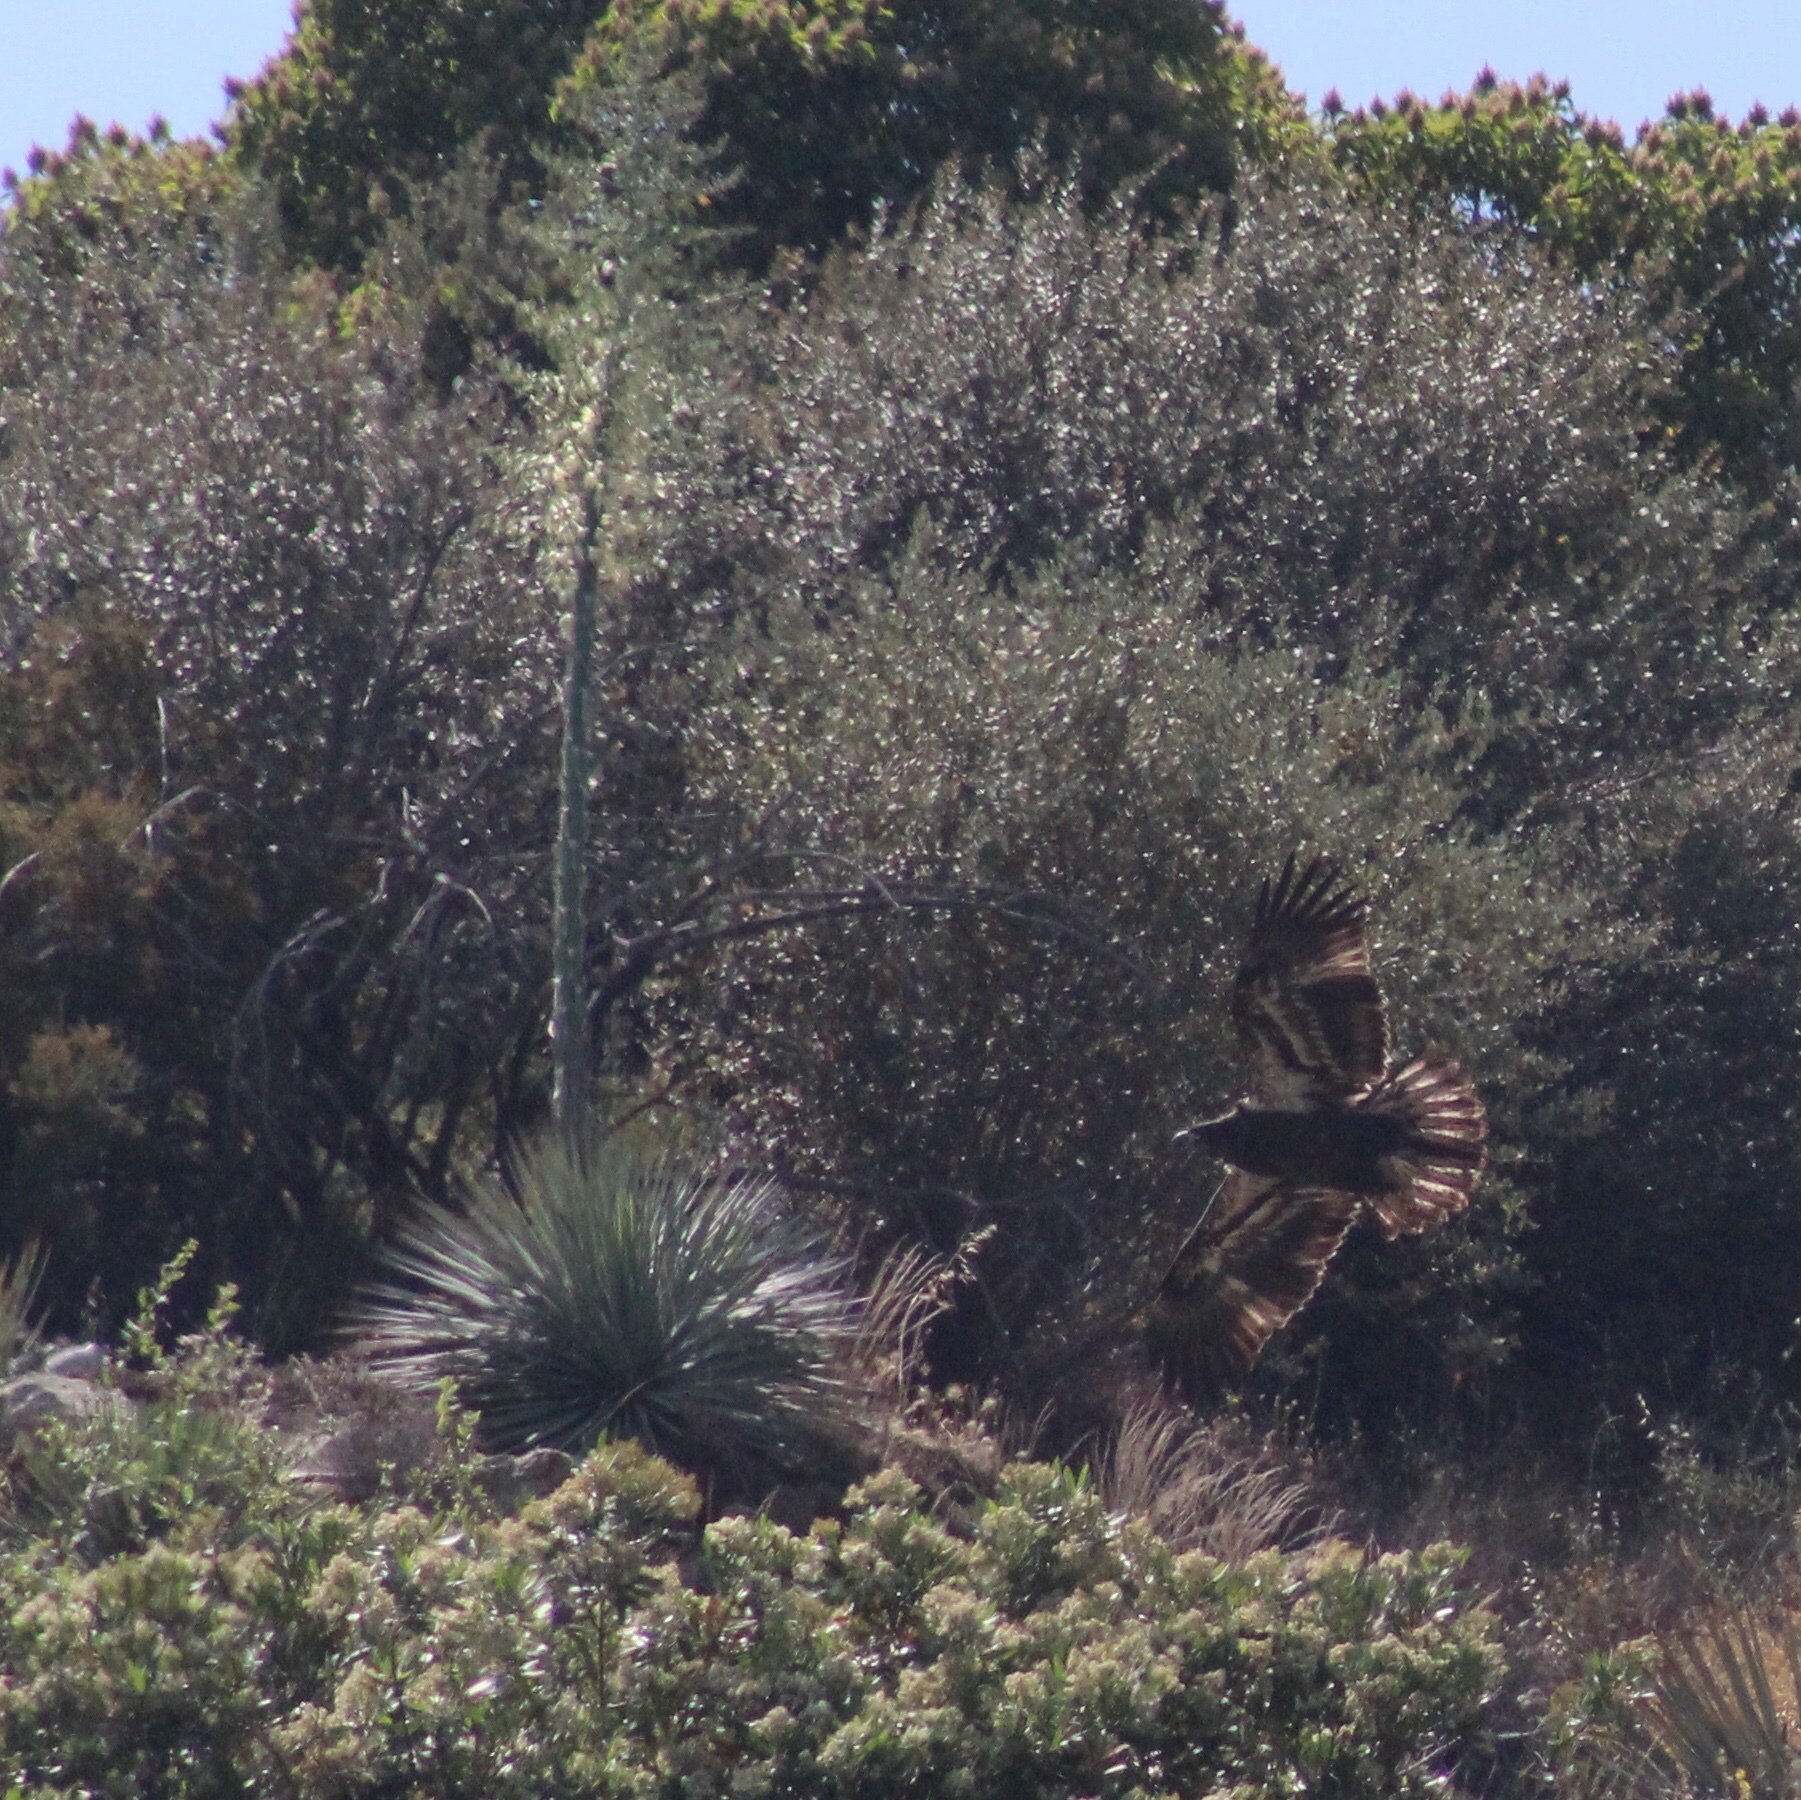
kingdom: Animalia
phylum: Chordata
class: Aves
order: Accipitriformes
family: Accipitridae
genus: Haliaeetus
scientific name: Haliaeetus leucocephalus
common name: Bald eagle
